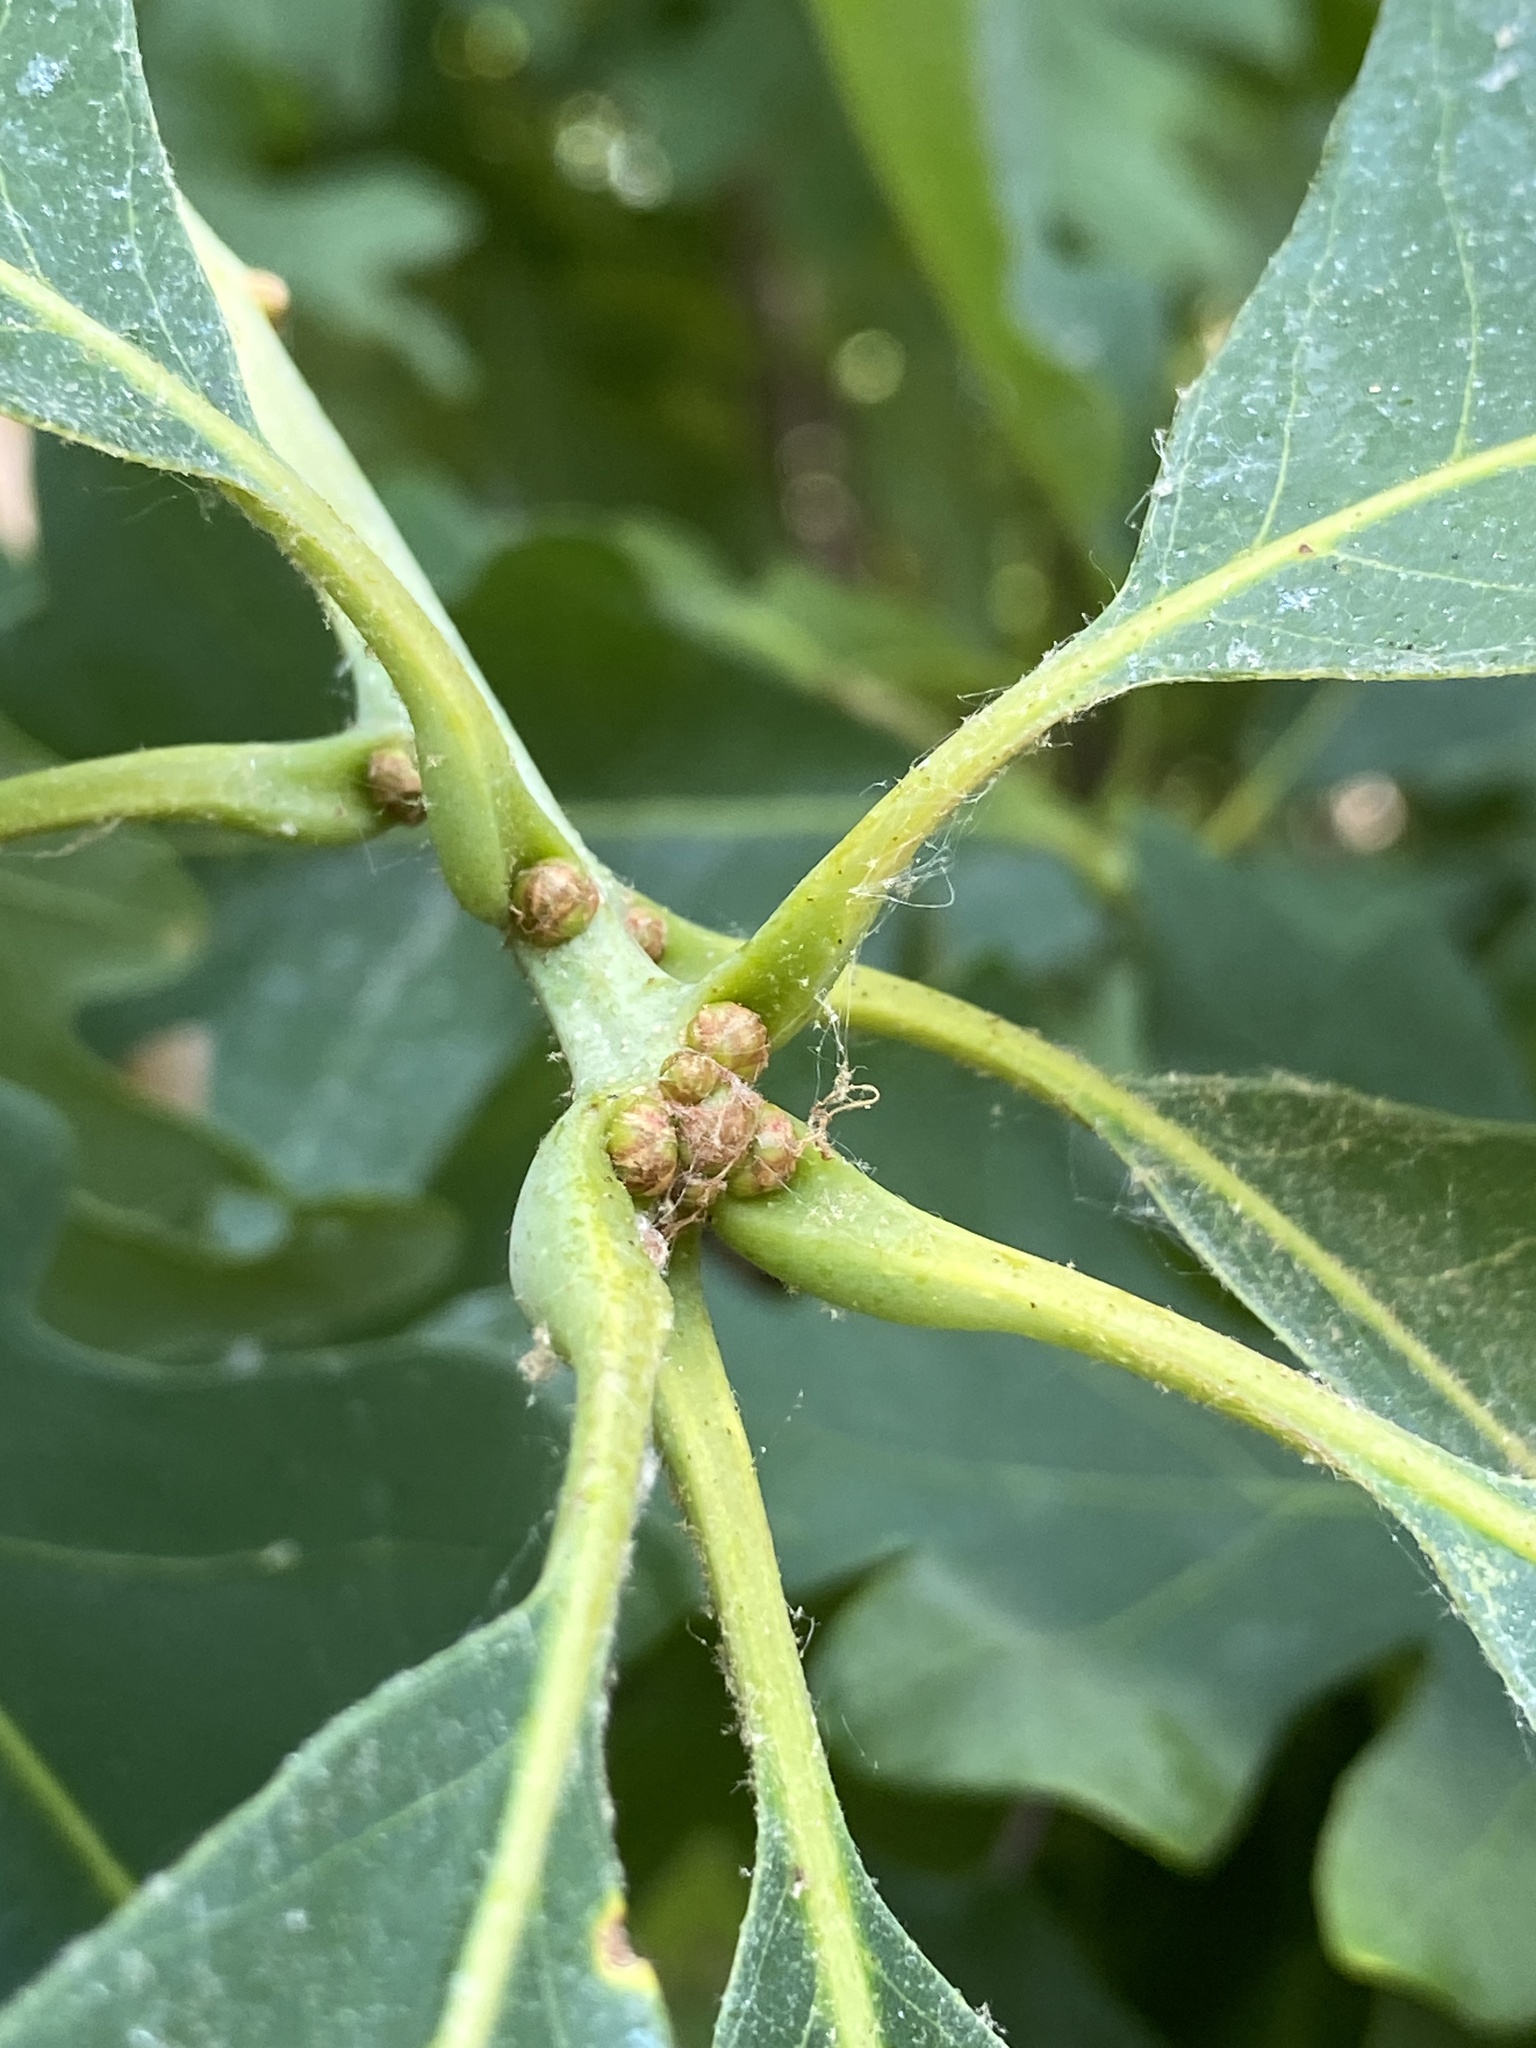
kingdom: Plantae
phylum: Tracheophyta
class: Magnoliopsida
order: Fagales
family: Fagaceae
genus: Quercus
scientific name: Quercus alba
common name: White oak
